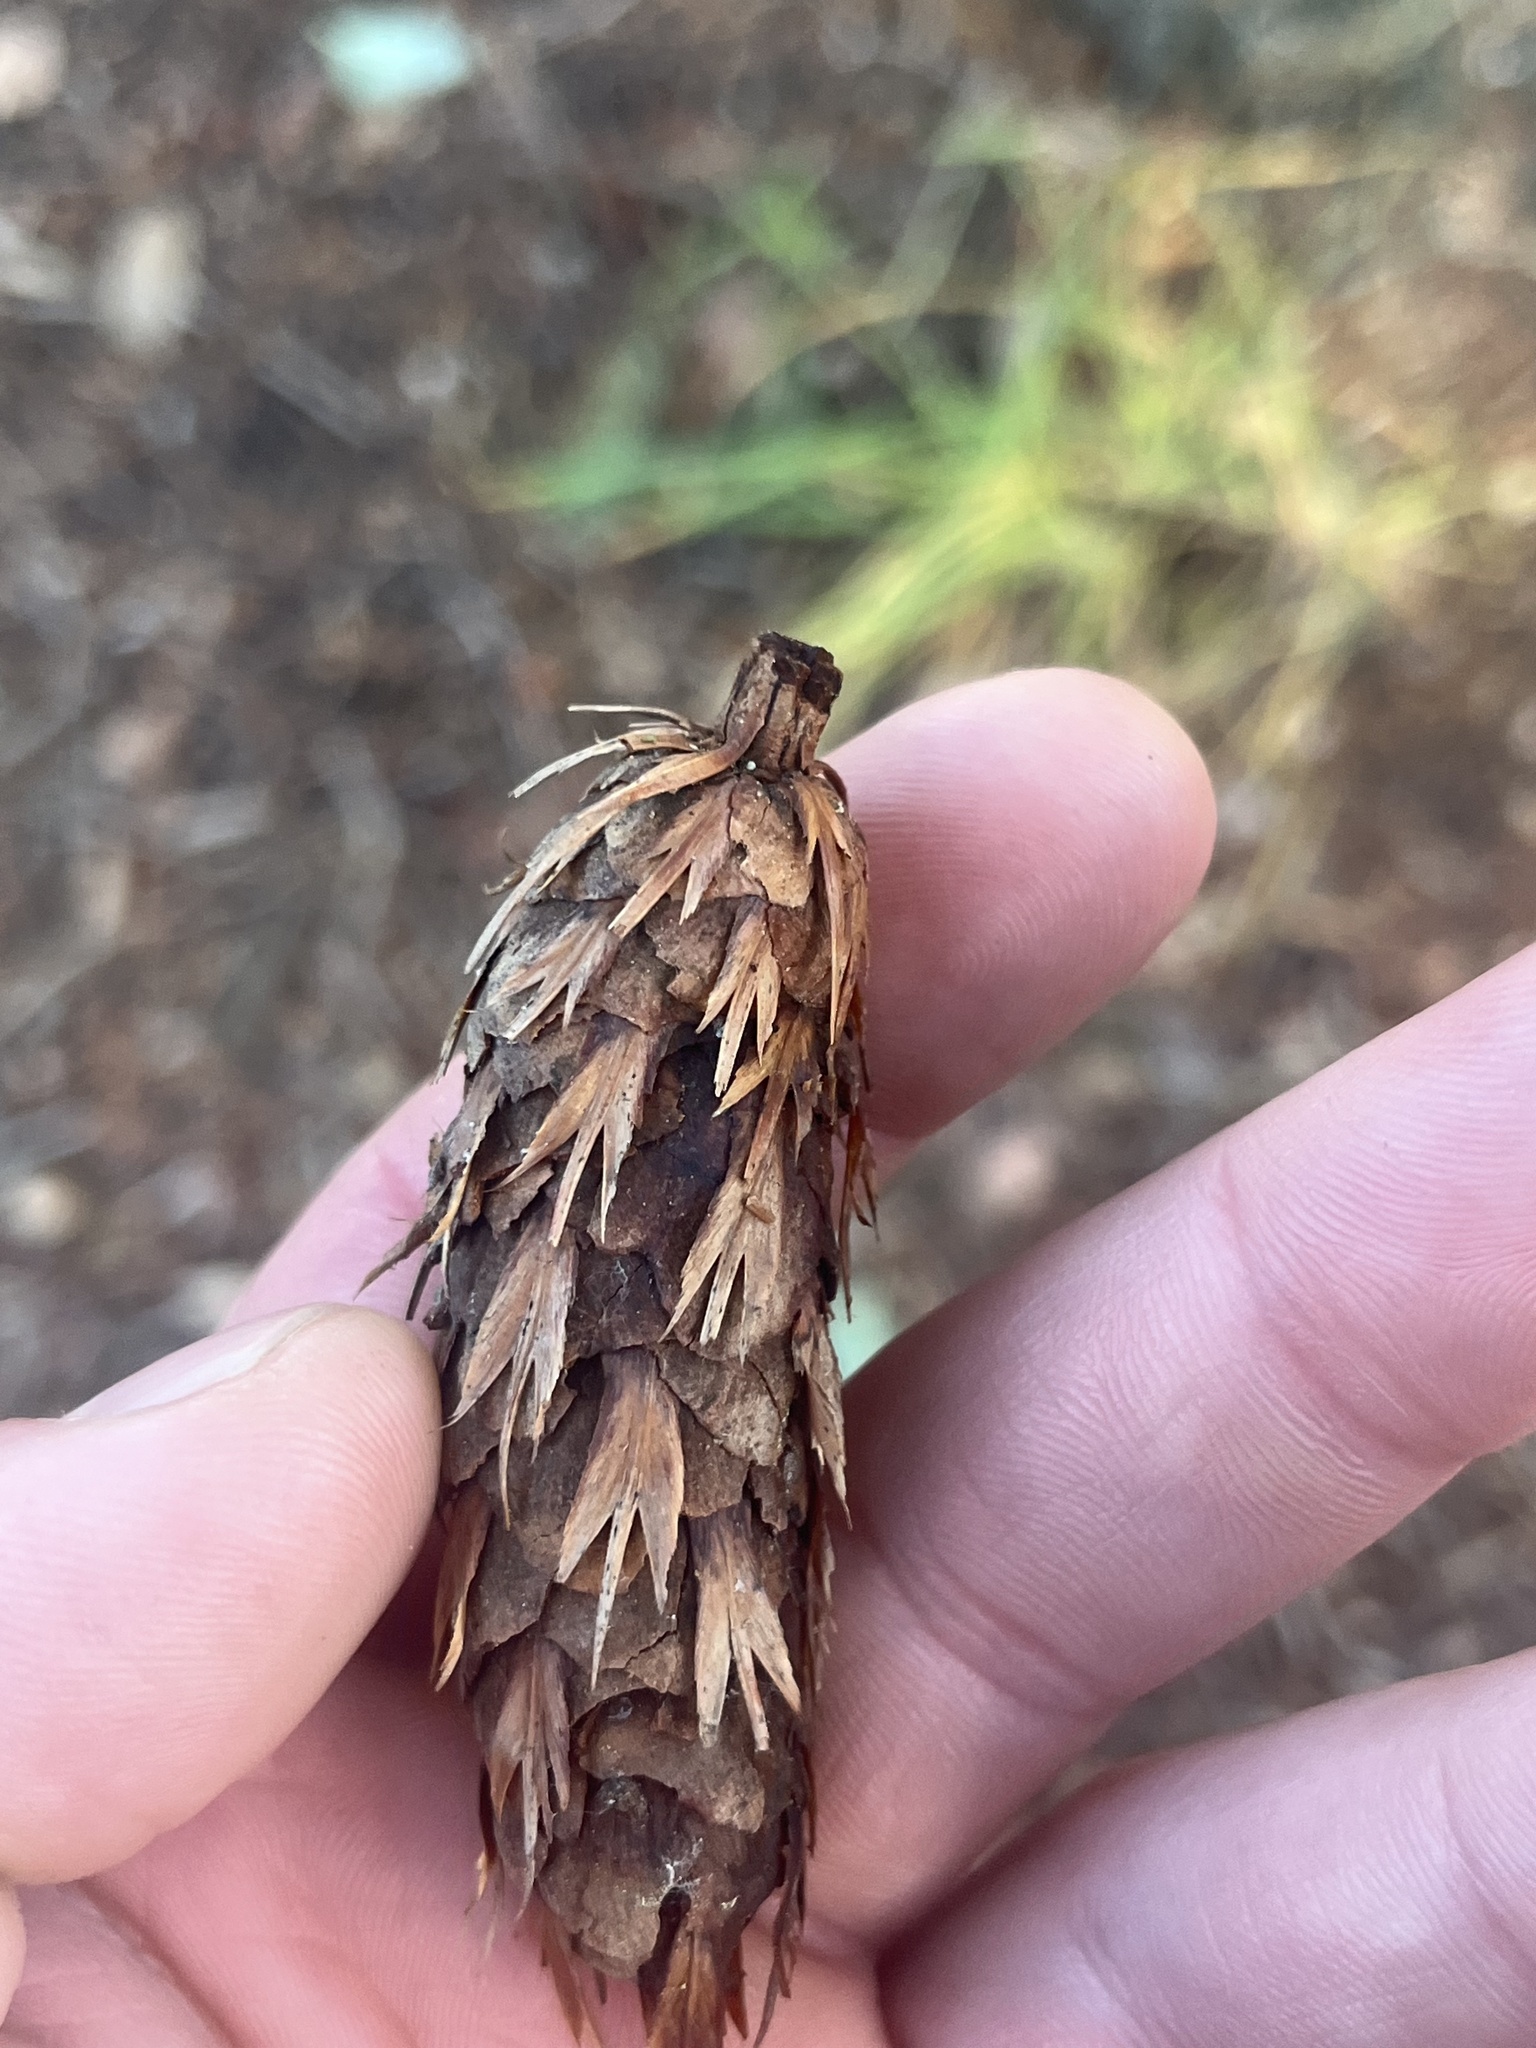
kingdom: Plantae
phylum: Tracheophyta
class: Pinopsida
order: Pinales
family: Pinaceae
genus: Pseudotsuga
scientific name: Pseudotsuga menziesii
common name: Douglas fir
